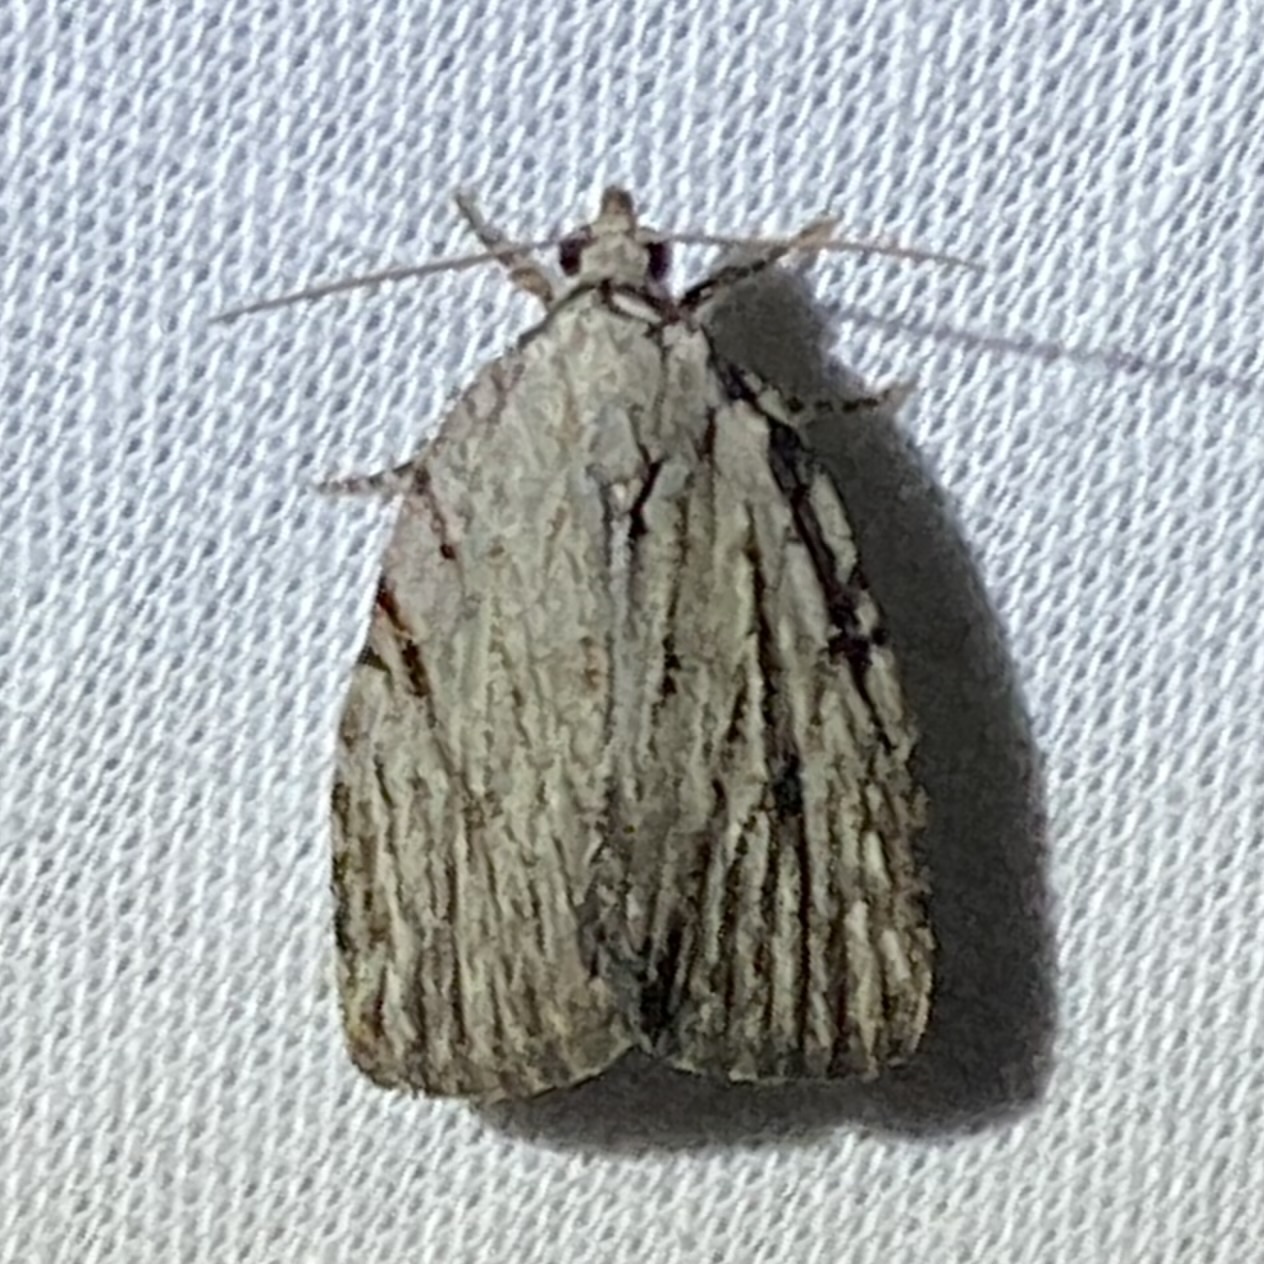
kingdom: Animalia
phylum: Arthropoda
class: Insecta
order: Lepidoptera
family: Noctuidae
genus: Balsa
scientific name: Balsa tristrigella
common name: Three-lined balsa moth
